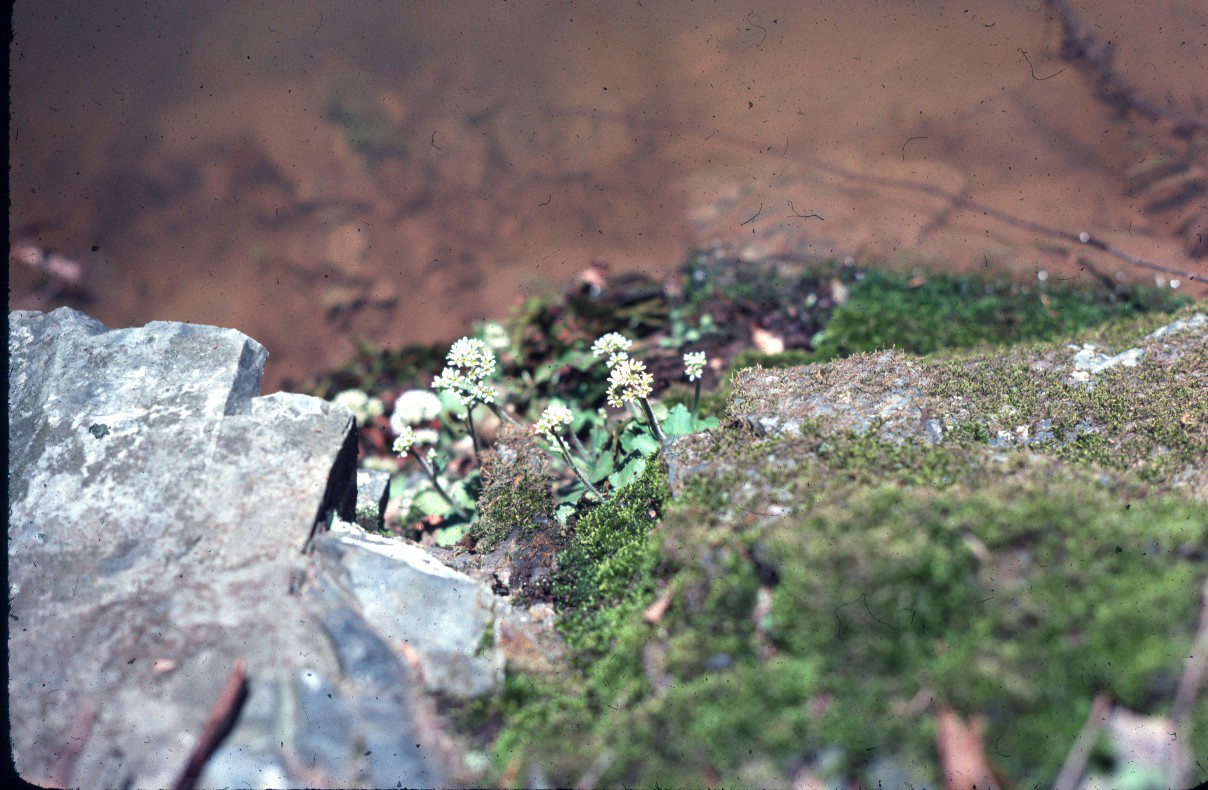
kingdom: Plantae
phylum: Tracheophyta
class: Magnoliopsida
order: Saxifragales
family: Saxifragaceae
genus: Micranthes
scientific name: Micranthes virginiensis
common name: Early saxifrage
